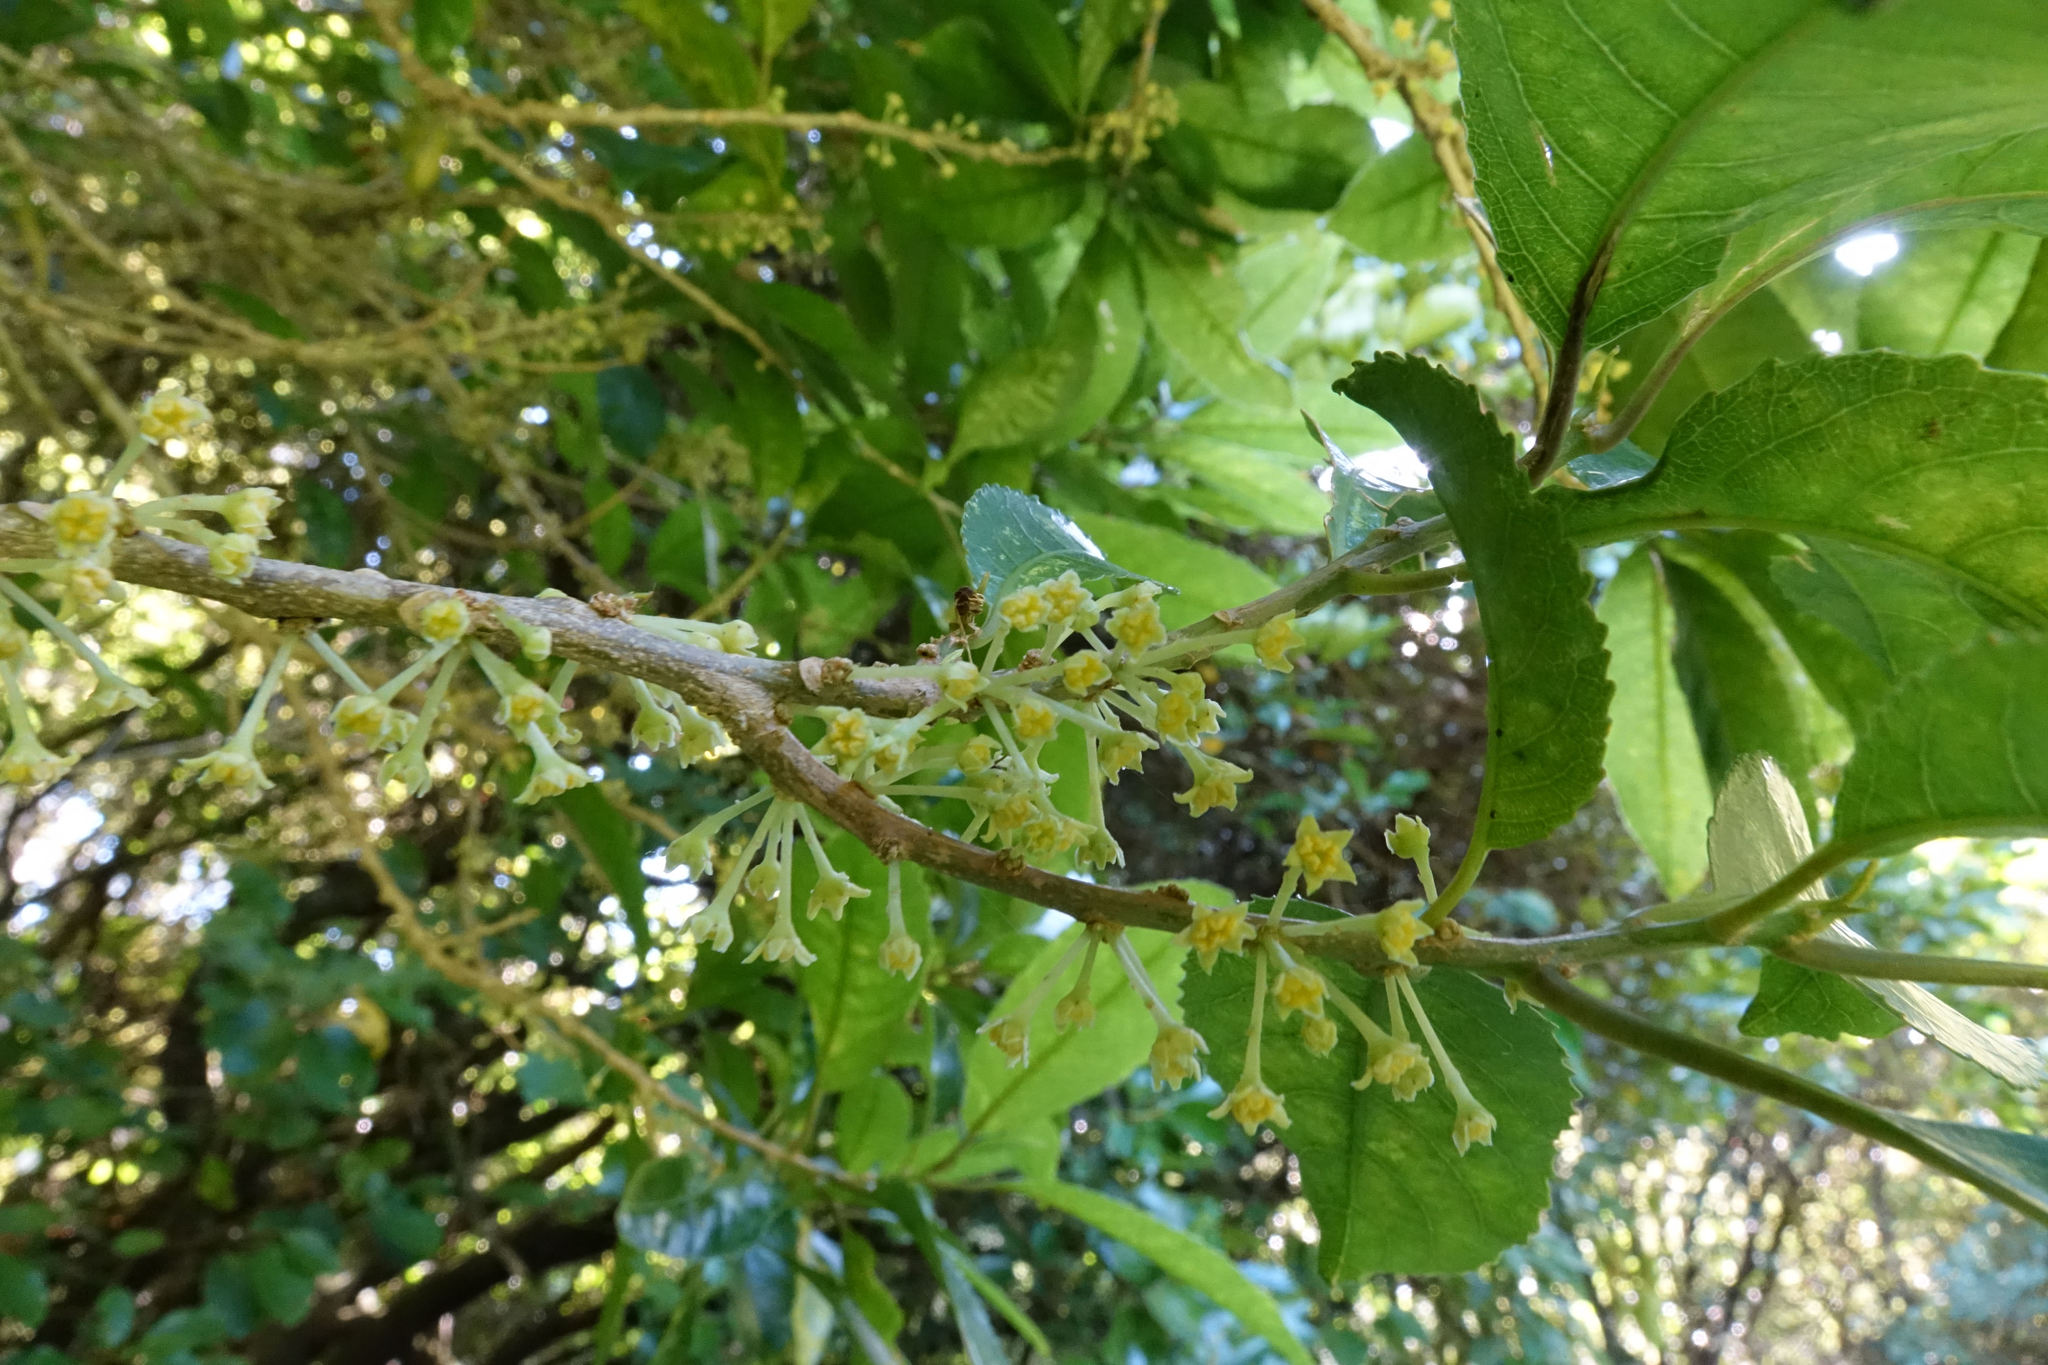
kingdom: Plantae
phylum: Tracheophyta
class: Magnoliopsida
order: Malpighiales
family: Violaceae
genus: Melicytus
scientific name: Melicytus ramiflorus
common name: Mahoe
